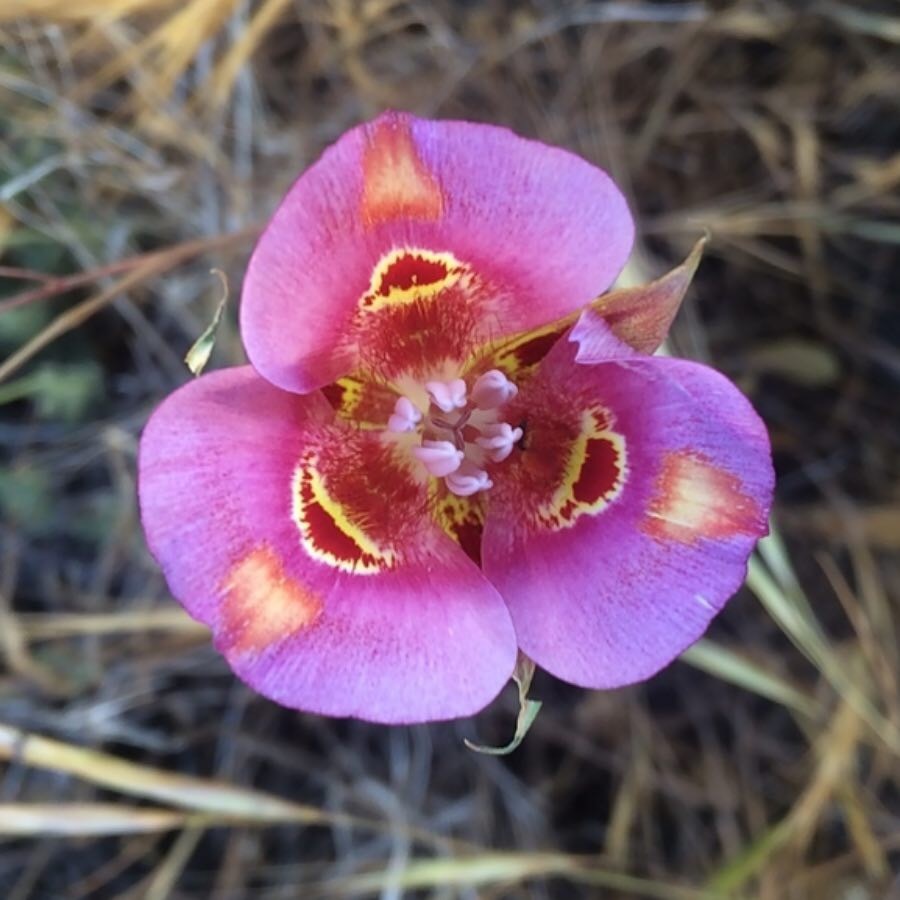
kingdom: Plantae
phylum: Tracheophyta
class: Liliopsida
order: Liliales
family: Liliaceae
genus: Calochortus
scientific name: Calochortus venustus
